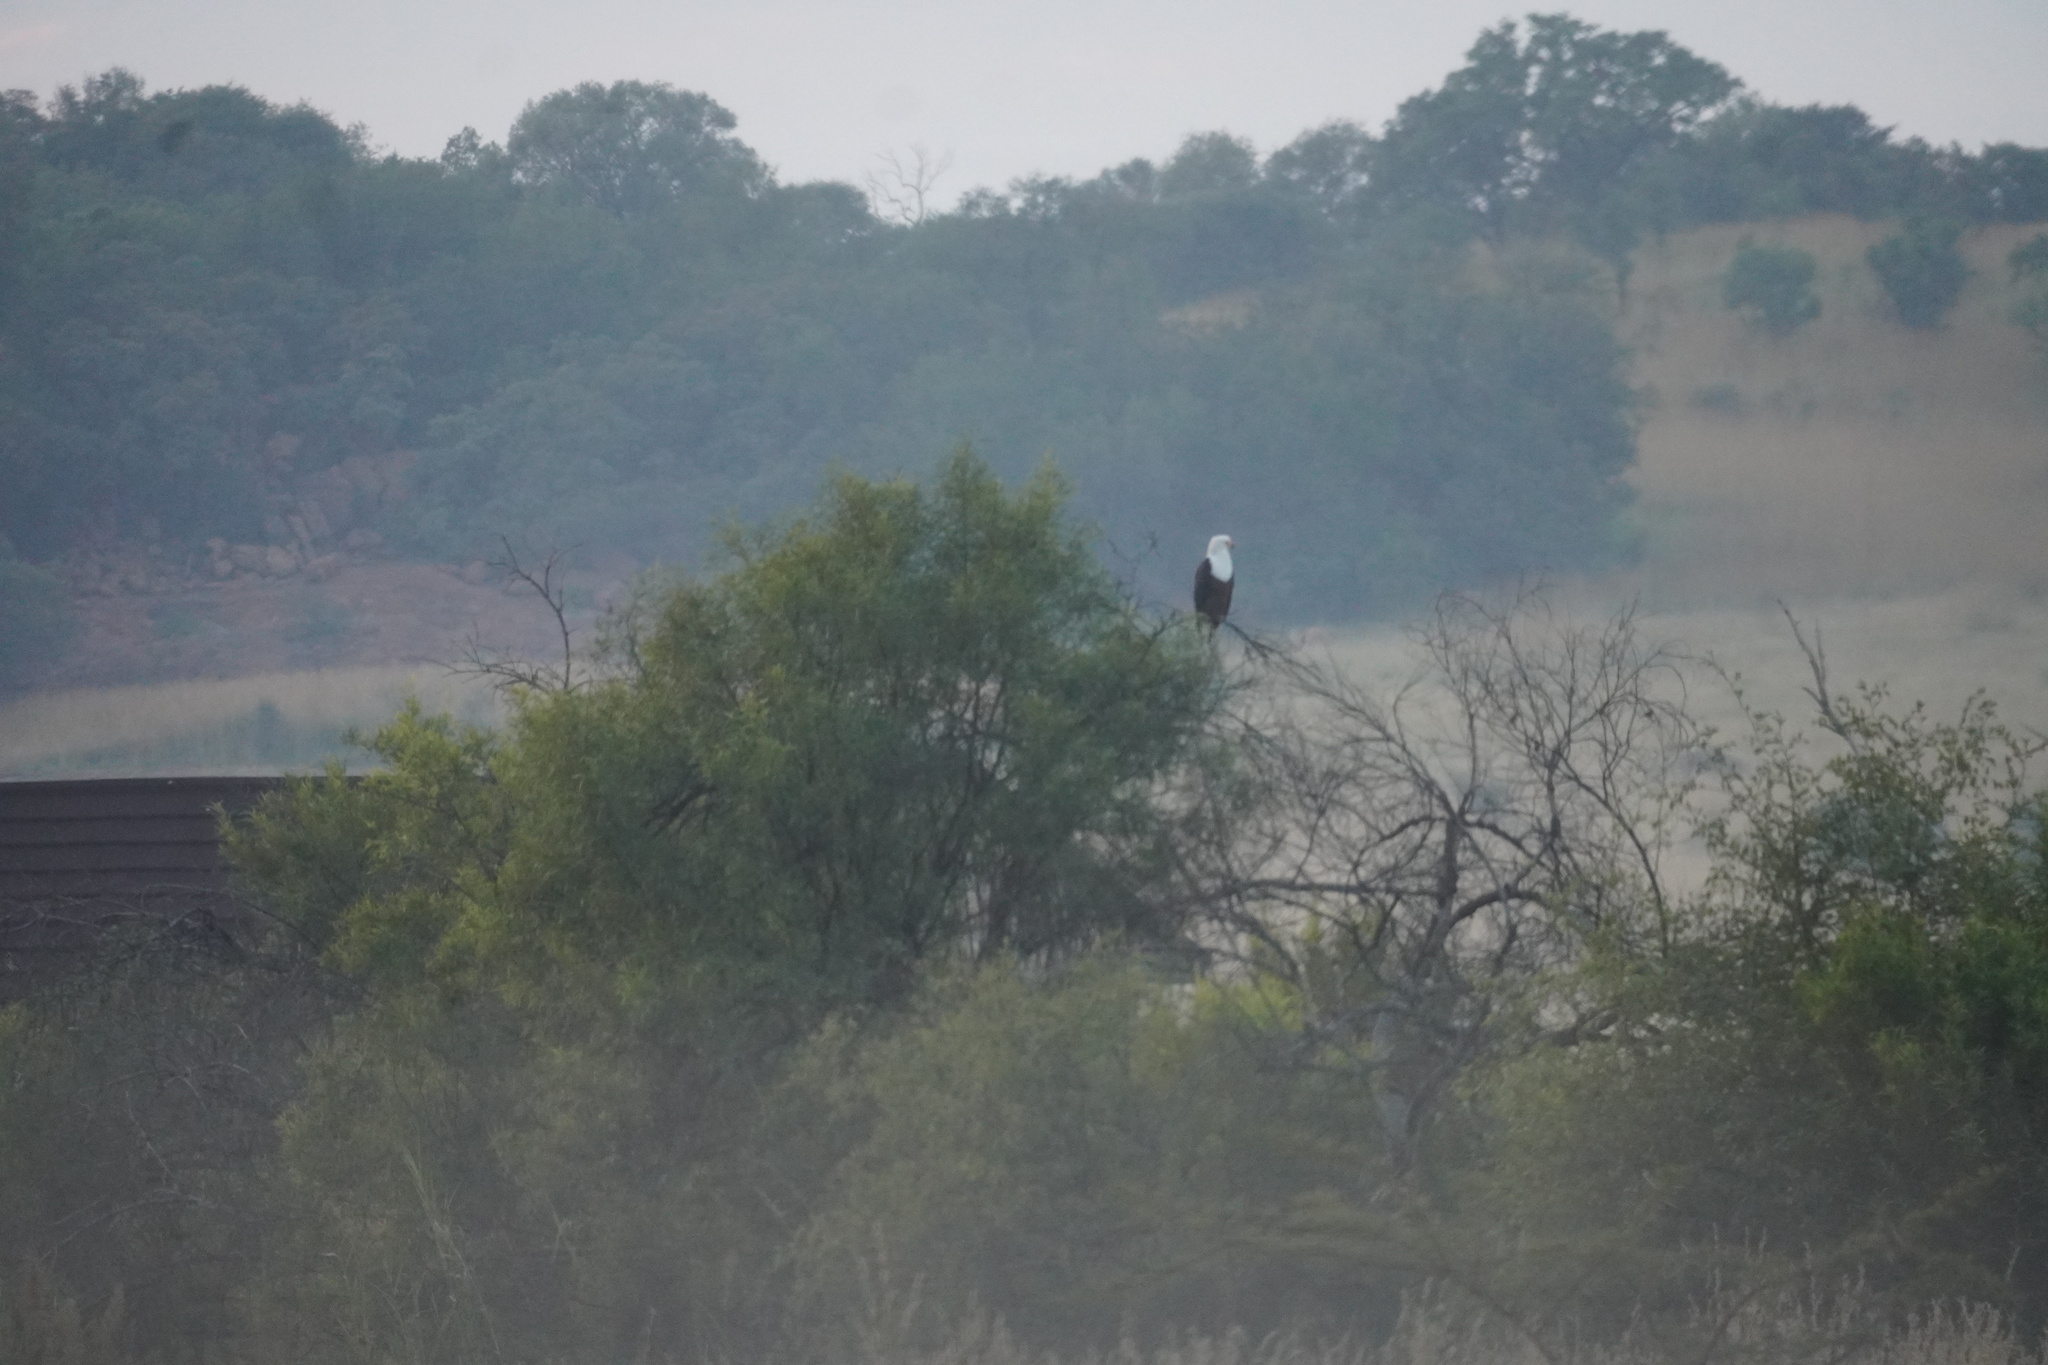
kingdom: Animalia
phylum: Chordata
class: Aves
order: Accipitriformes
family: Accipitridae
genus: Haliaeetus
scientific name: Haliaeetus vocifer
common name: African fish eagle
